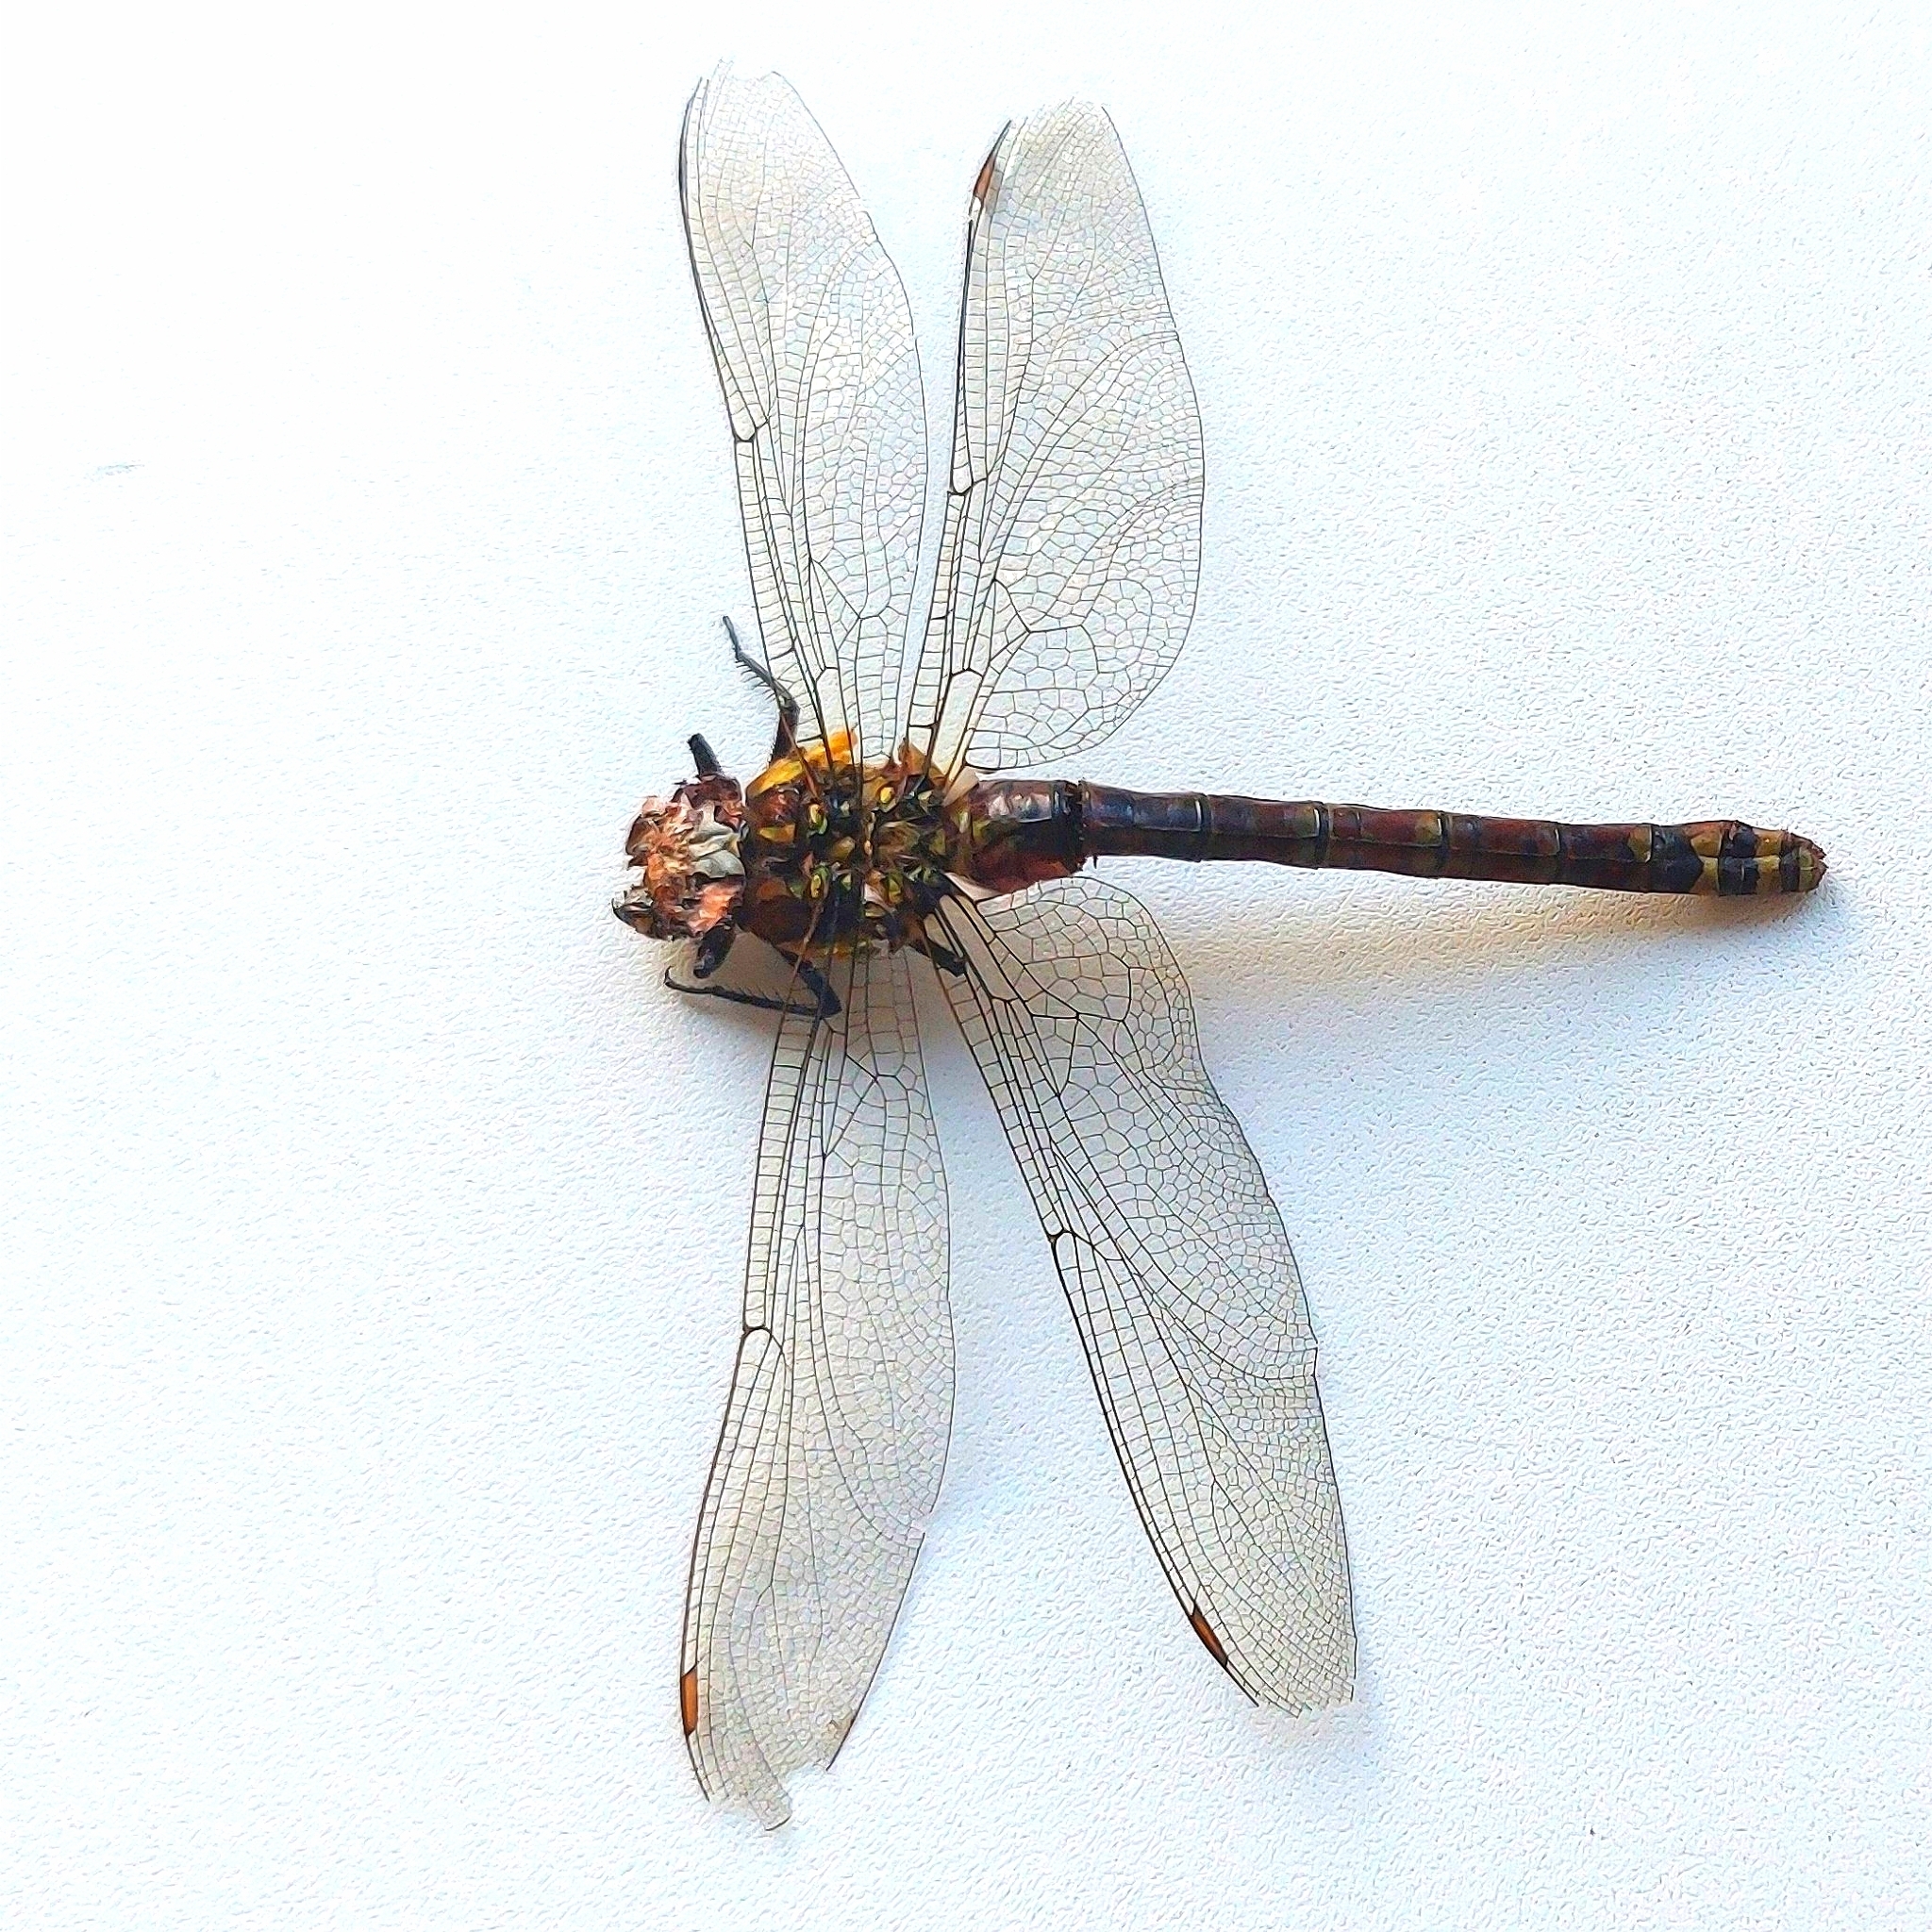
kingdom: Animalia
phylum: Arthropoda
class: Insecta
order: Odonata
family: Aeshnidae
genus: Aeshna
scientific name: Aeshna cyanea
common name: Southern hawker
